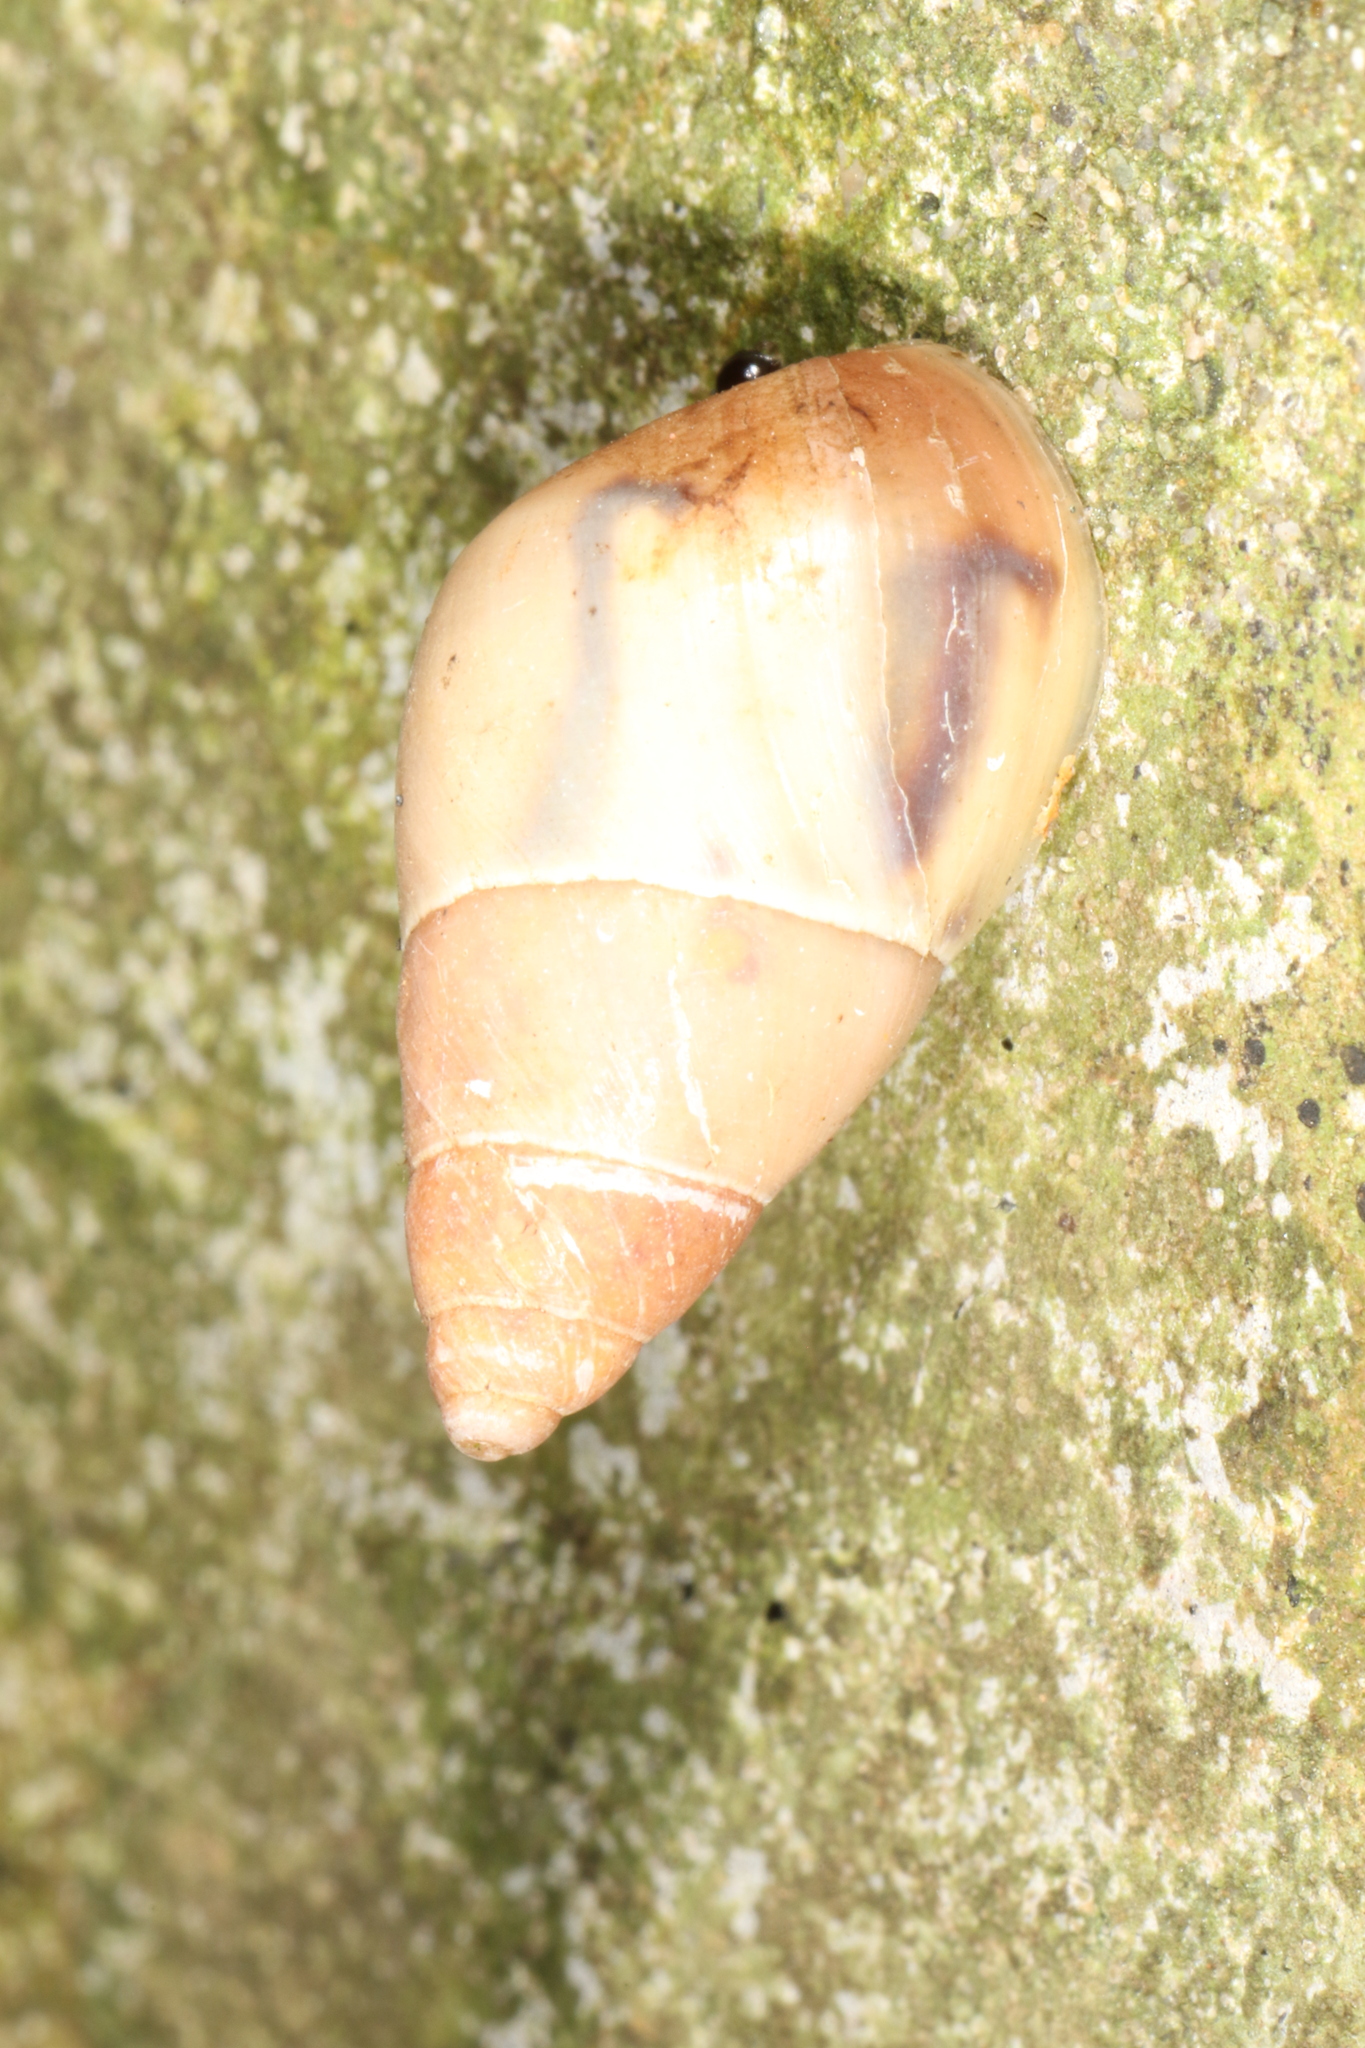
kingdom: Animalia
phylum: Mollusca
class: Gastropoda
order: Stylommatophora
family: Bulimulidae
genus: Drymaeus
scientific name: Drymaeus semistriatus
